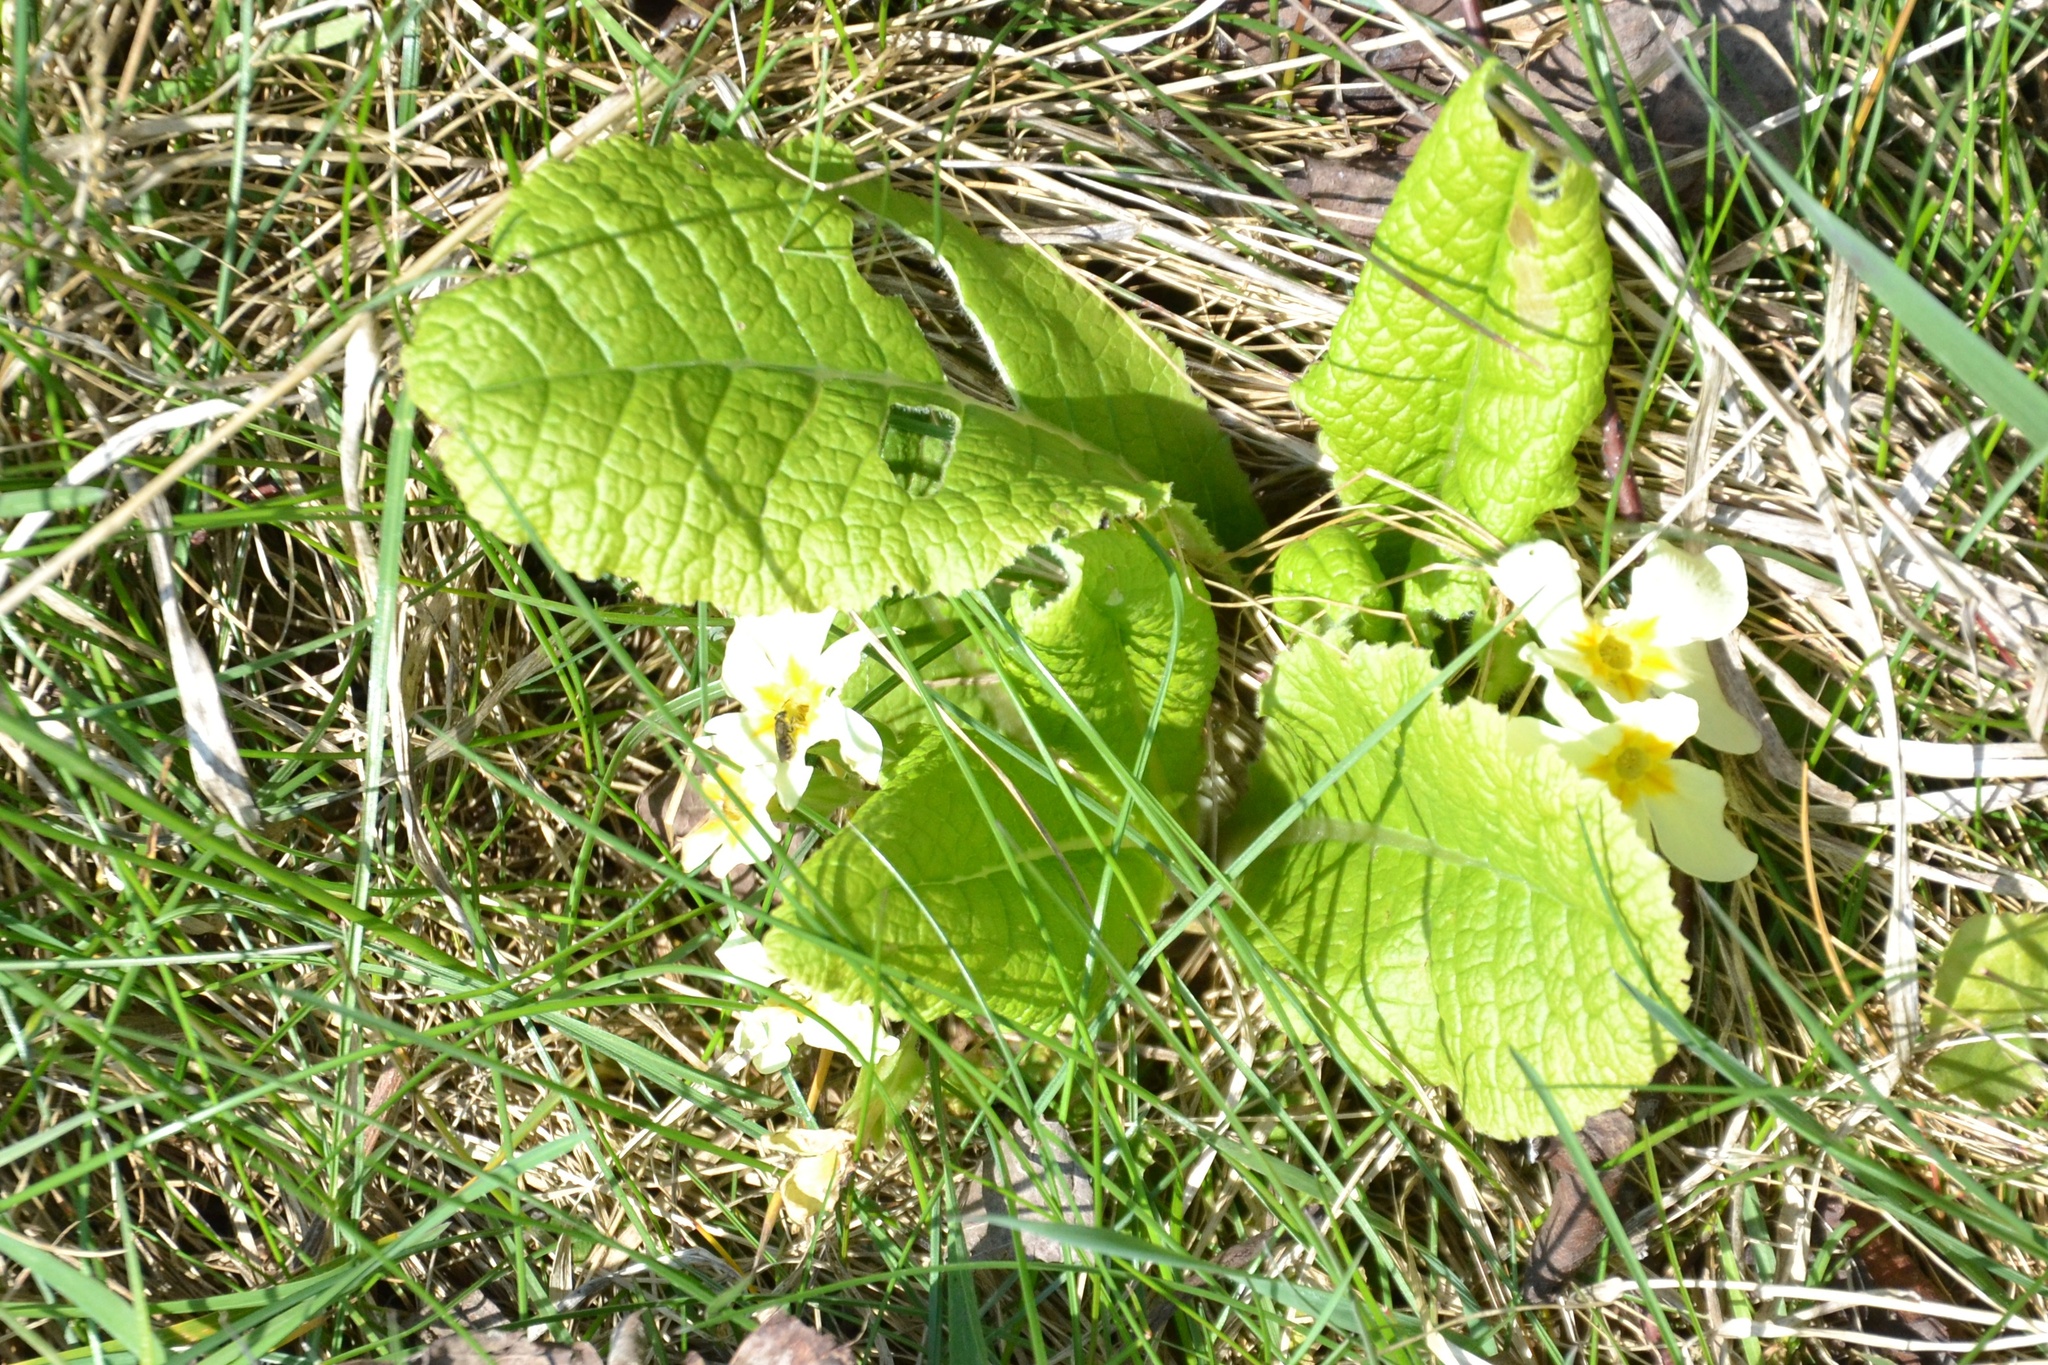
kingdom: Plantae
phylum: Tracheophyta
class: Magnoliopsida
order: Ericales
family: Primulaceae
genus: Primula
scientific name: Primula vulgaris
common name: Primrose
